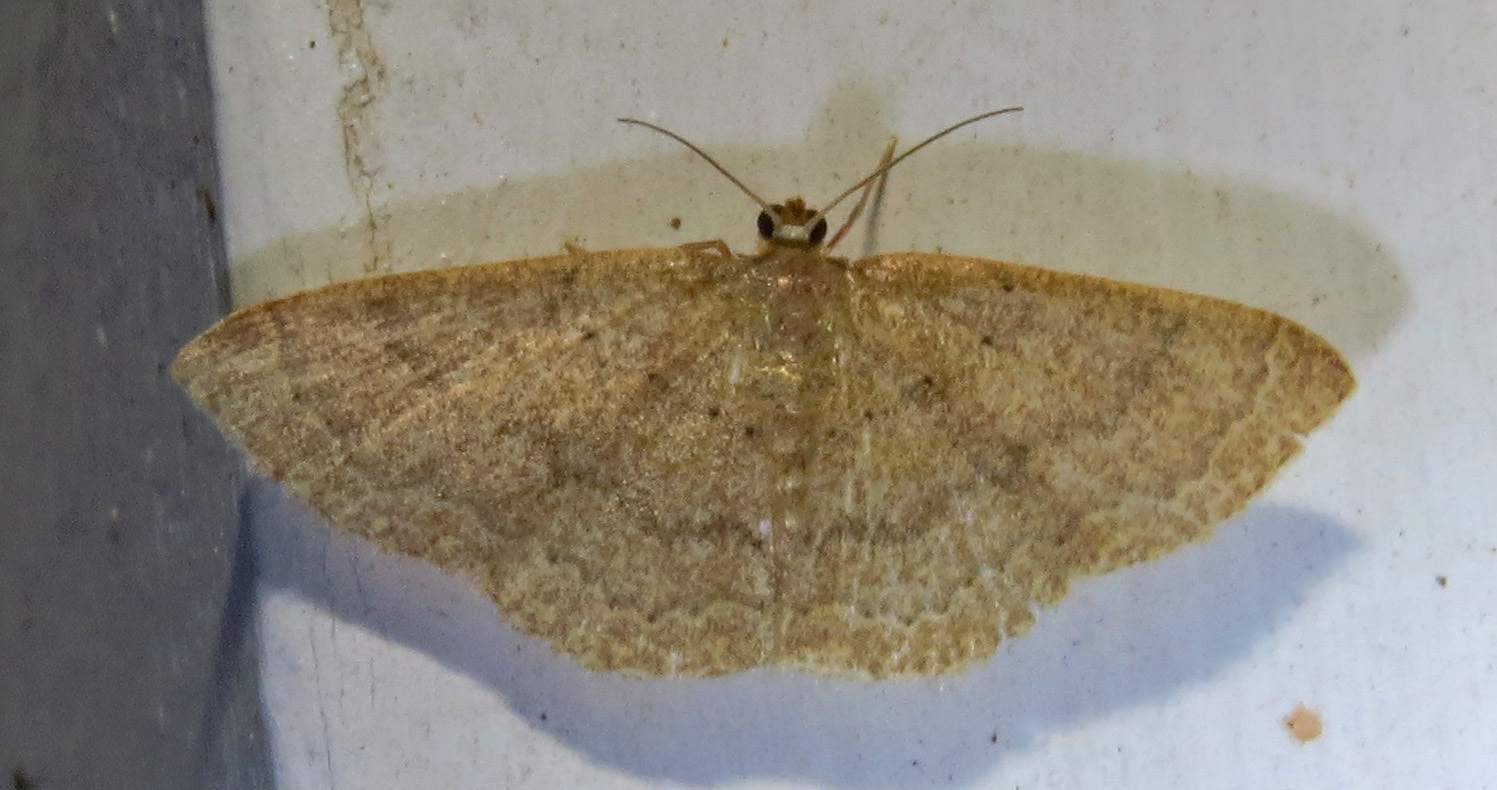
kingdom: Animalia
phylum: Arthropoda
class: Insecta
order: Lepidoptera
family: Geometridae
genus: Pleuroprucha
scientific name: Pleuroprucha insulsaria
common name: Common tan wave
